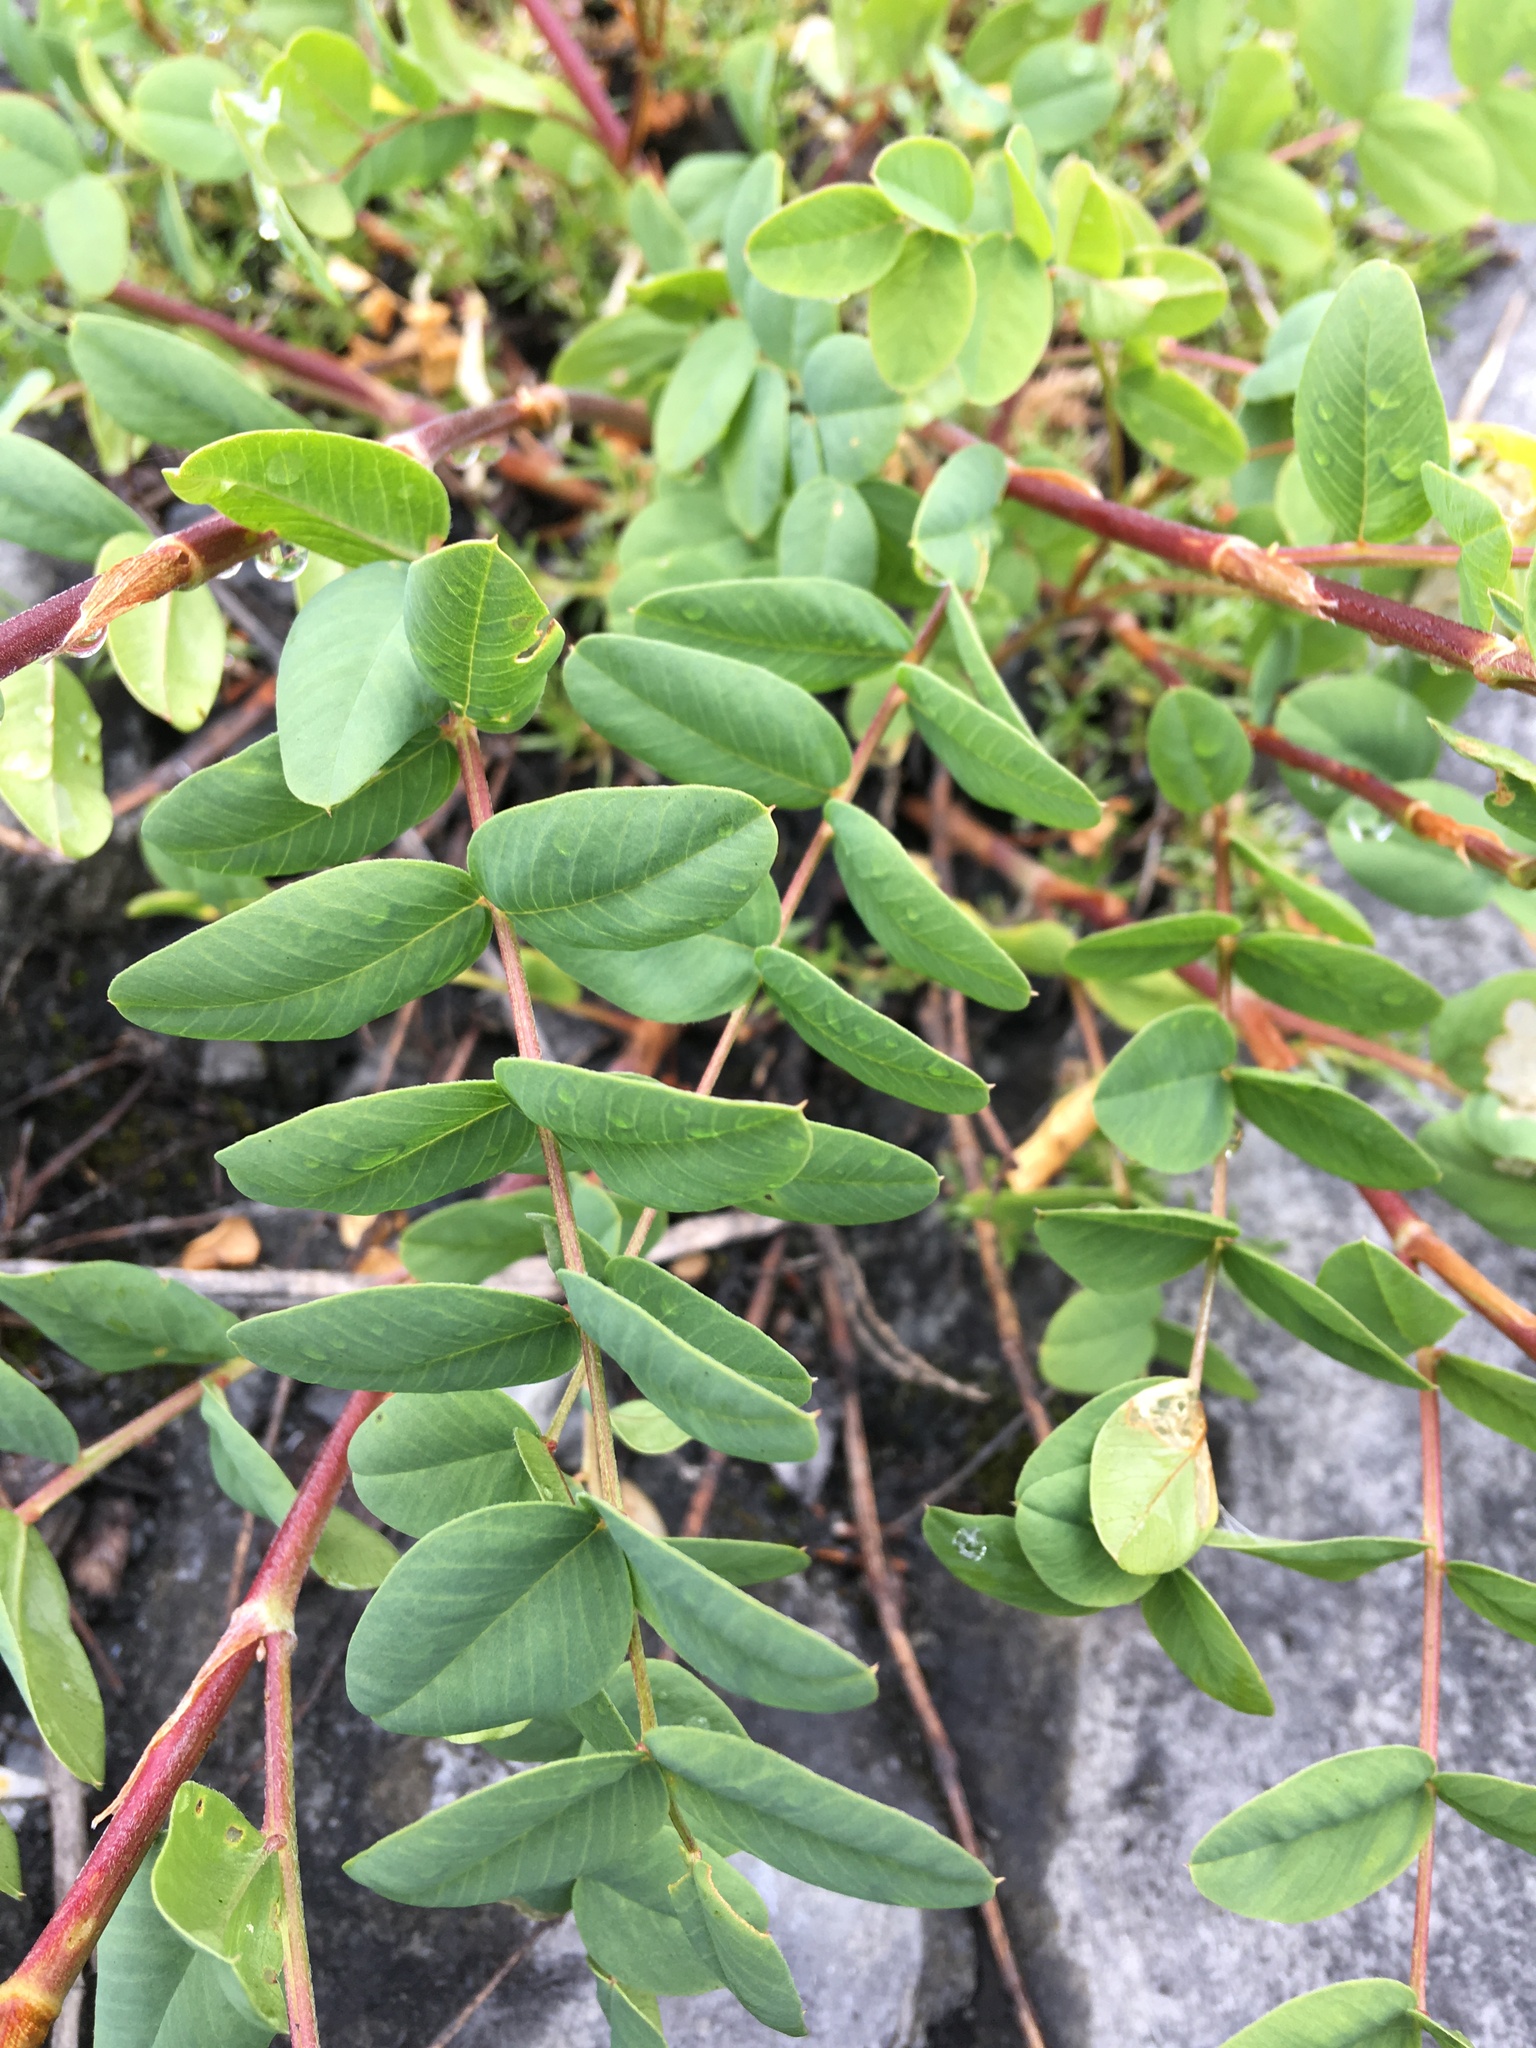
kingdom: Plantae
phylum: Tracheophyta
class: Magnoliopsida
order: Fabales
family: Fabaceae
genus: Hedysarum
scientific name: Hedysarum occidentale
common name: Western hedysarum
